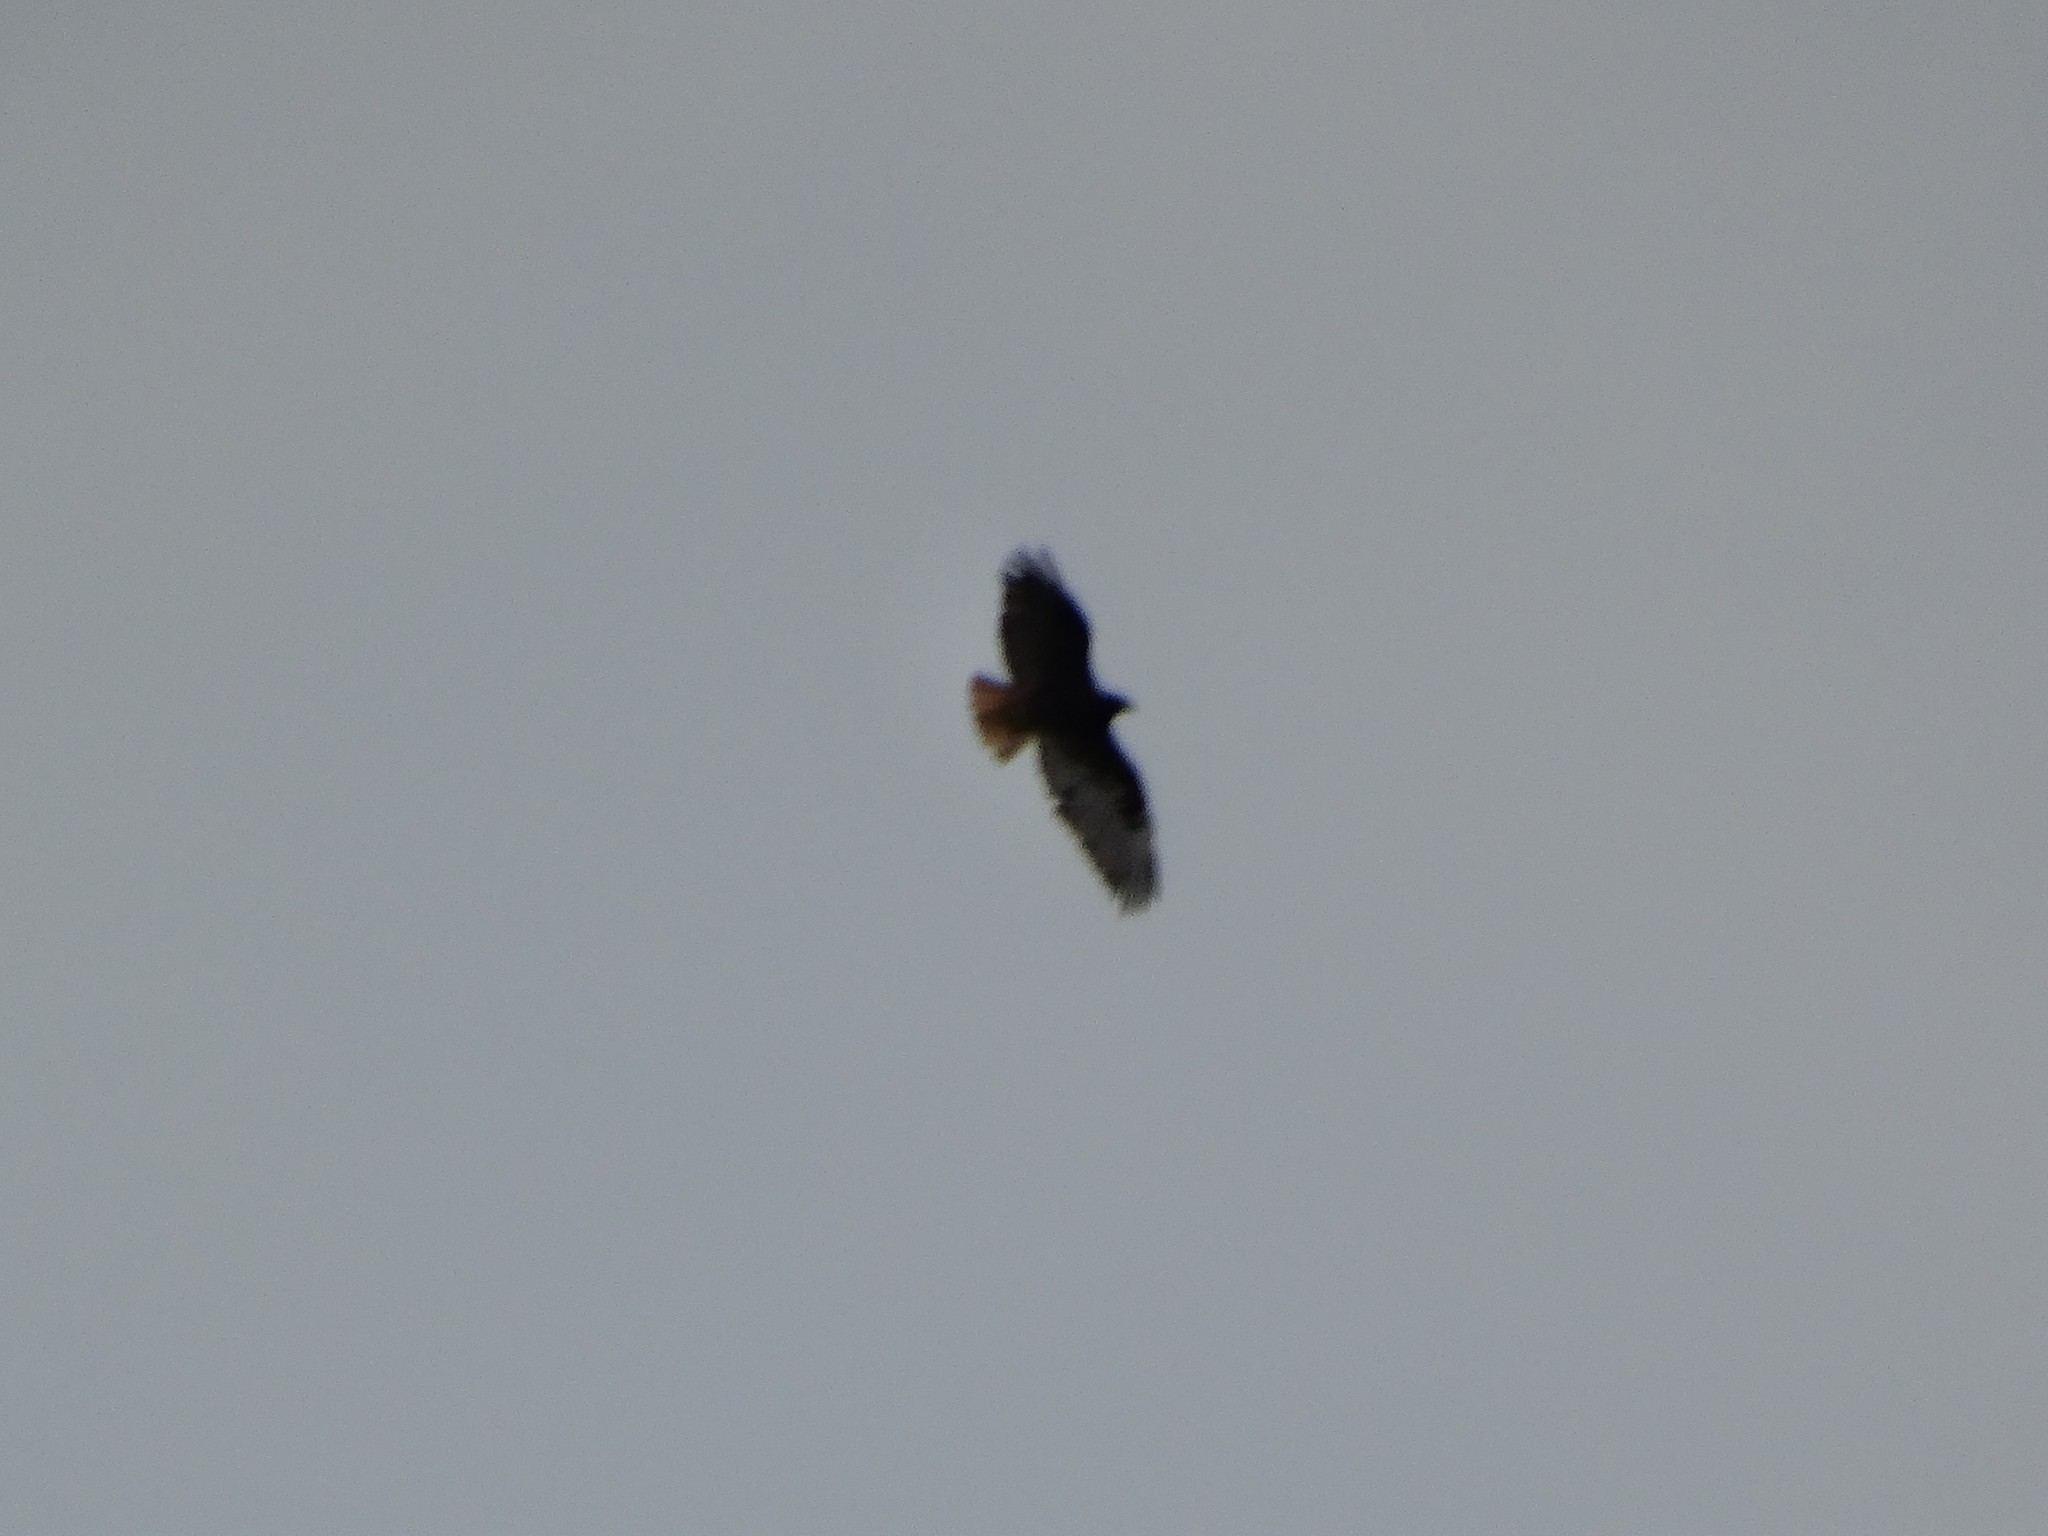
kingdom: Animalia
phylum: Chordata
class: Aves
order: Accipitriformes
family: Accipitridae
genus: Buteo
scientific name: Buteo jamaicensis
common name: Red-tailed hawk
